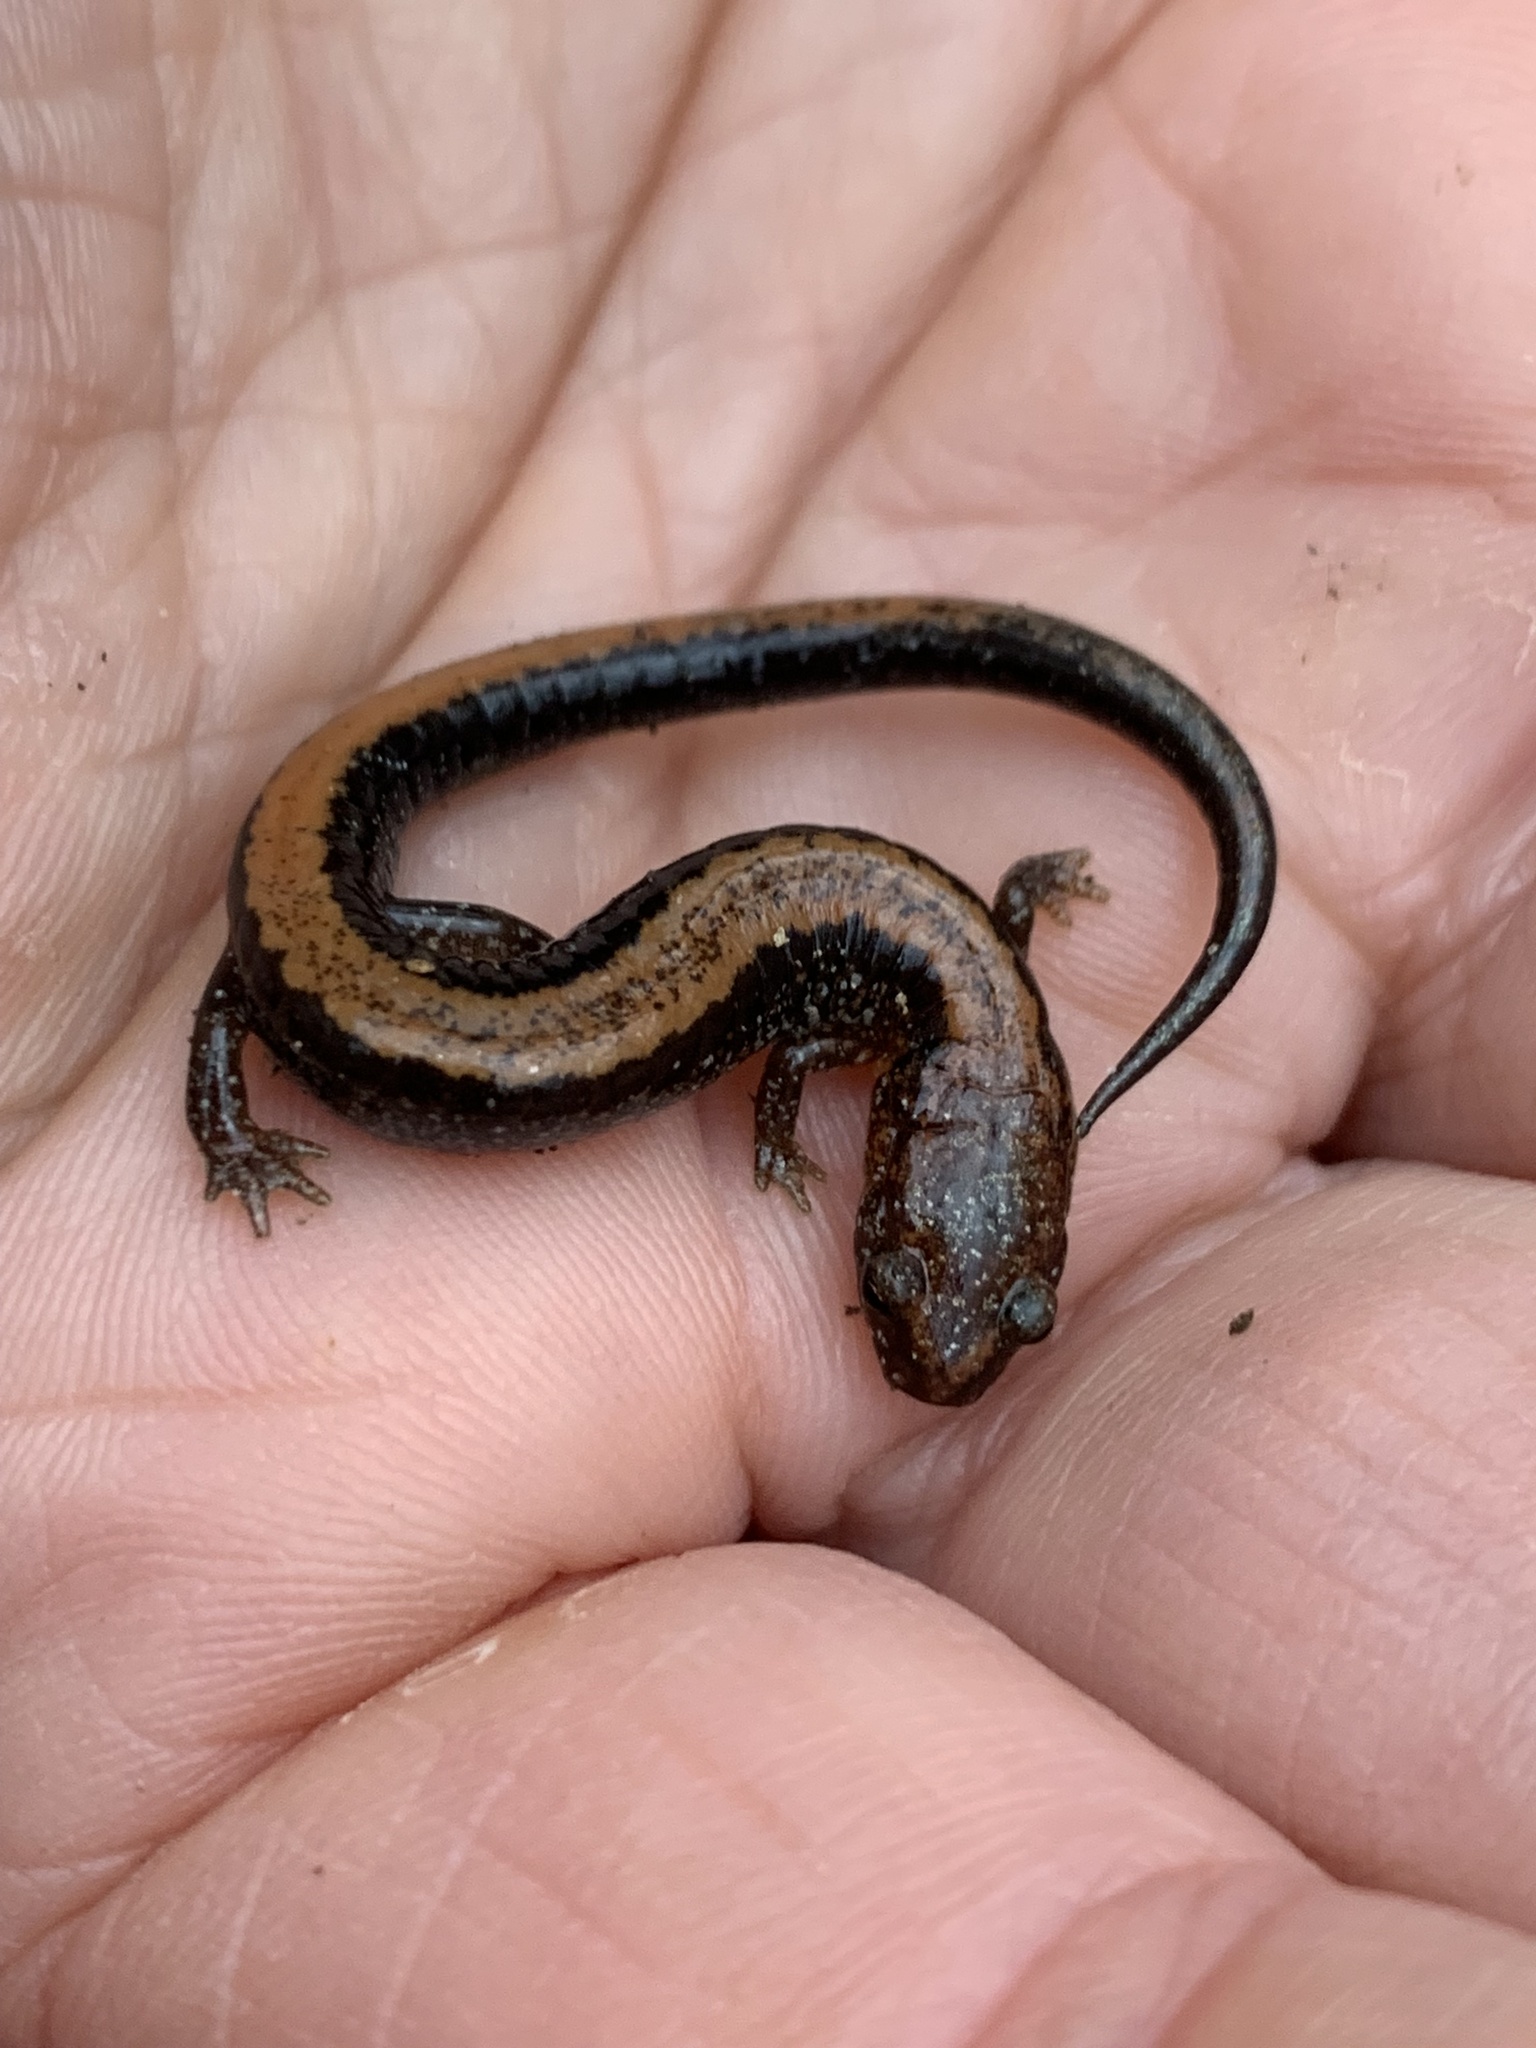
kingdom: Animalia
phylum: Chordata
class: Amphibia
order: Caudata
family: Plethodontidae
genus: Plethodon
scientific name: Plethodon cinereus
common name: Redback salamander
